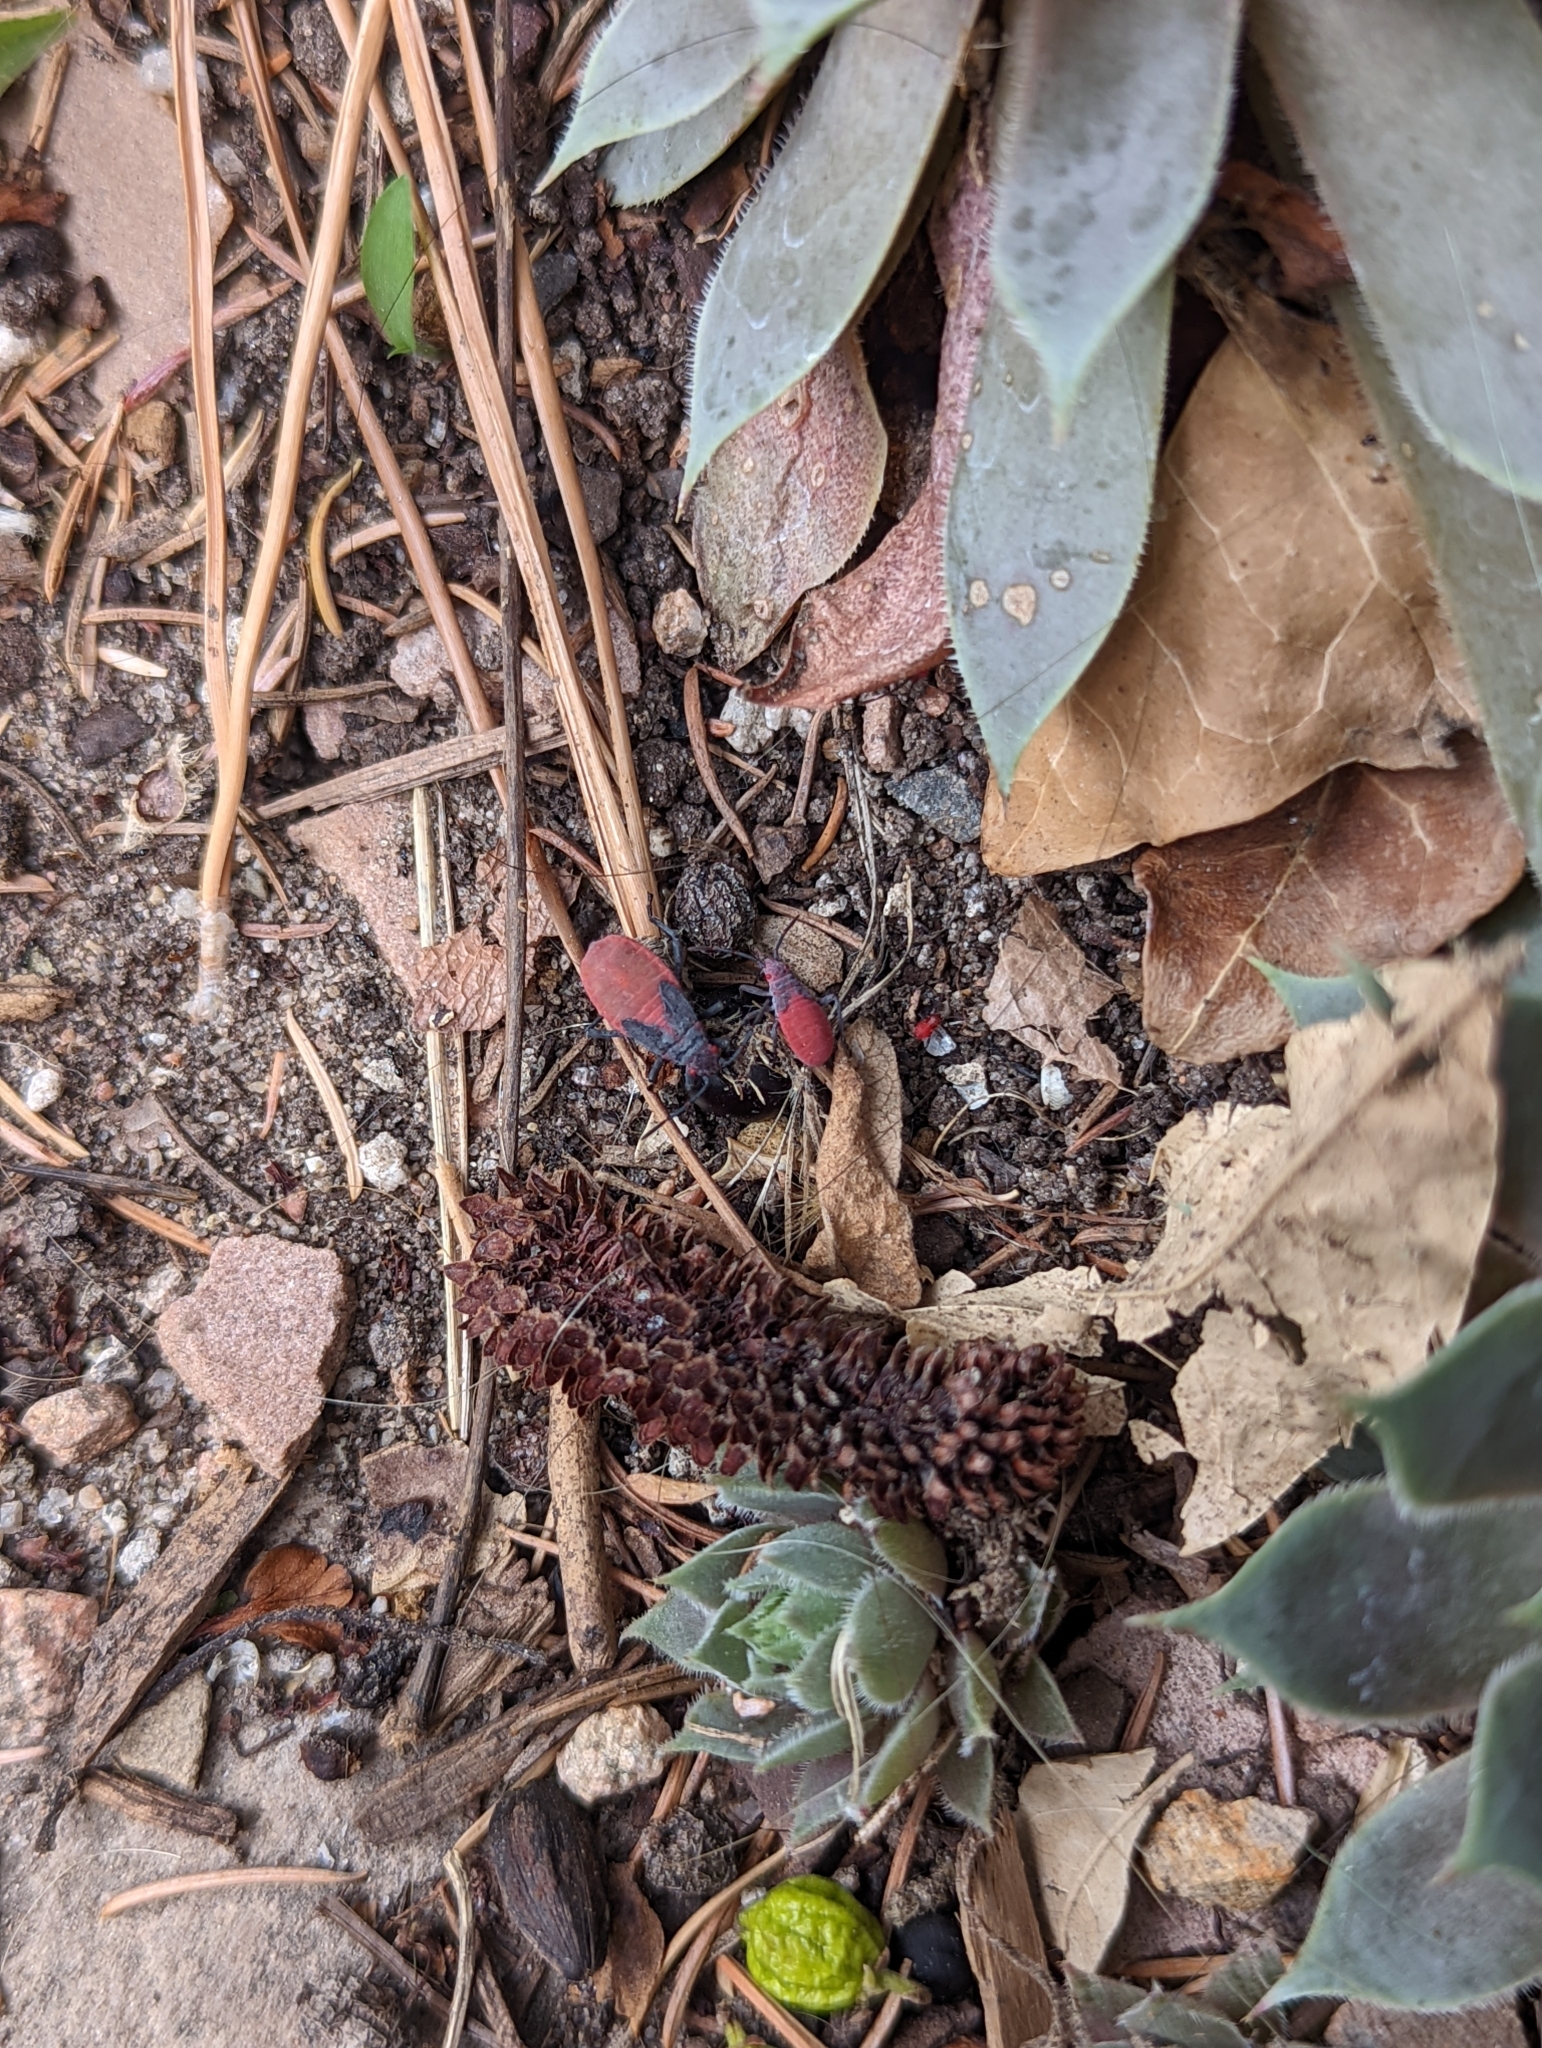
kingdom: Animalia
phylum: Arthropoda
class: Insecta
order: Hemiptera
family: Rhopalidae
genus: Jadera
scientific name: Jadera haematoloma
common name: Red-shouldered bug
